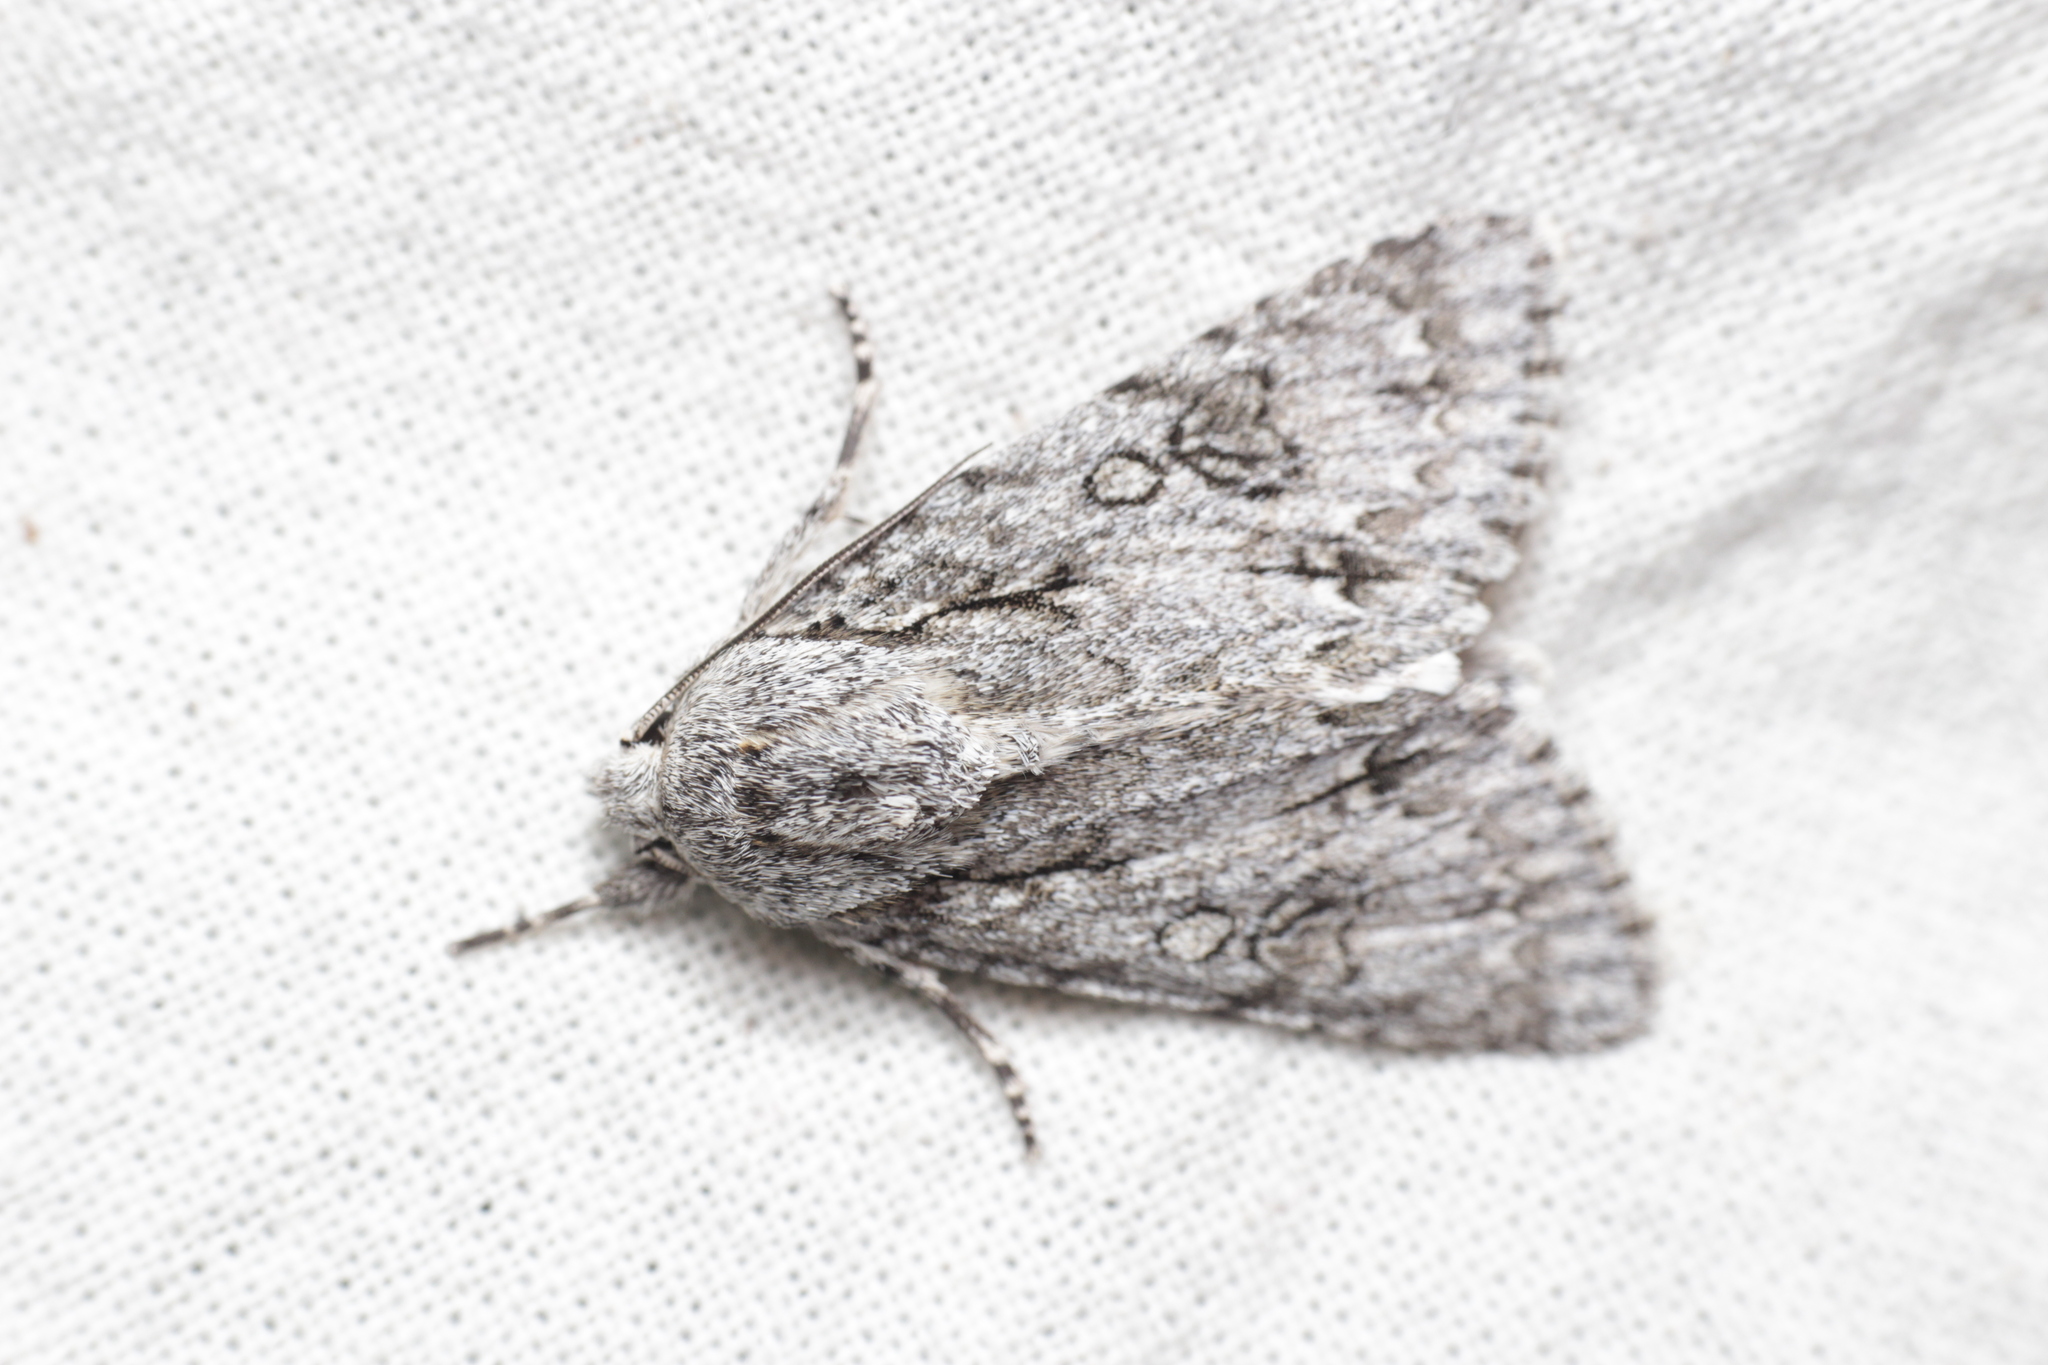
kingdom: Animalia
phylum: Arthropoda
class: Insecta
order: Lepidoptera
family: Noctuidae
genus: Acronicta
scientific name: Acronicta aceris
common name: Sycamore
